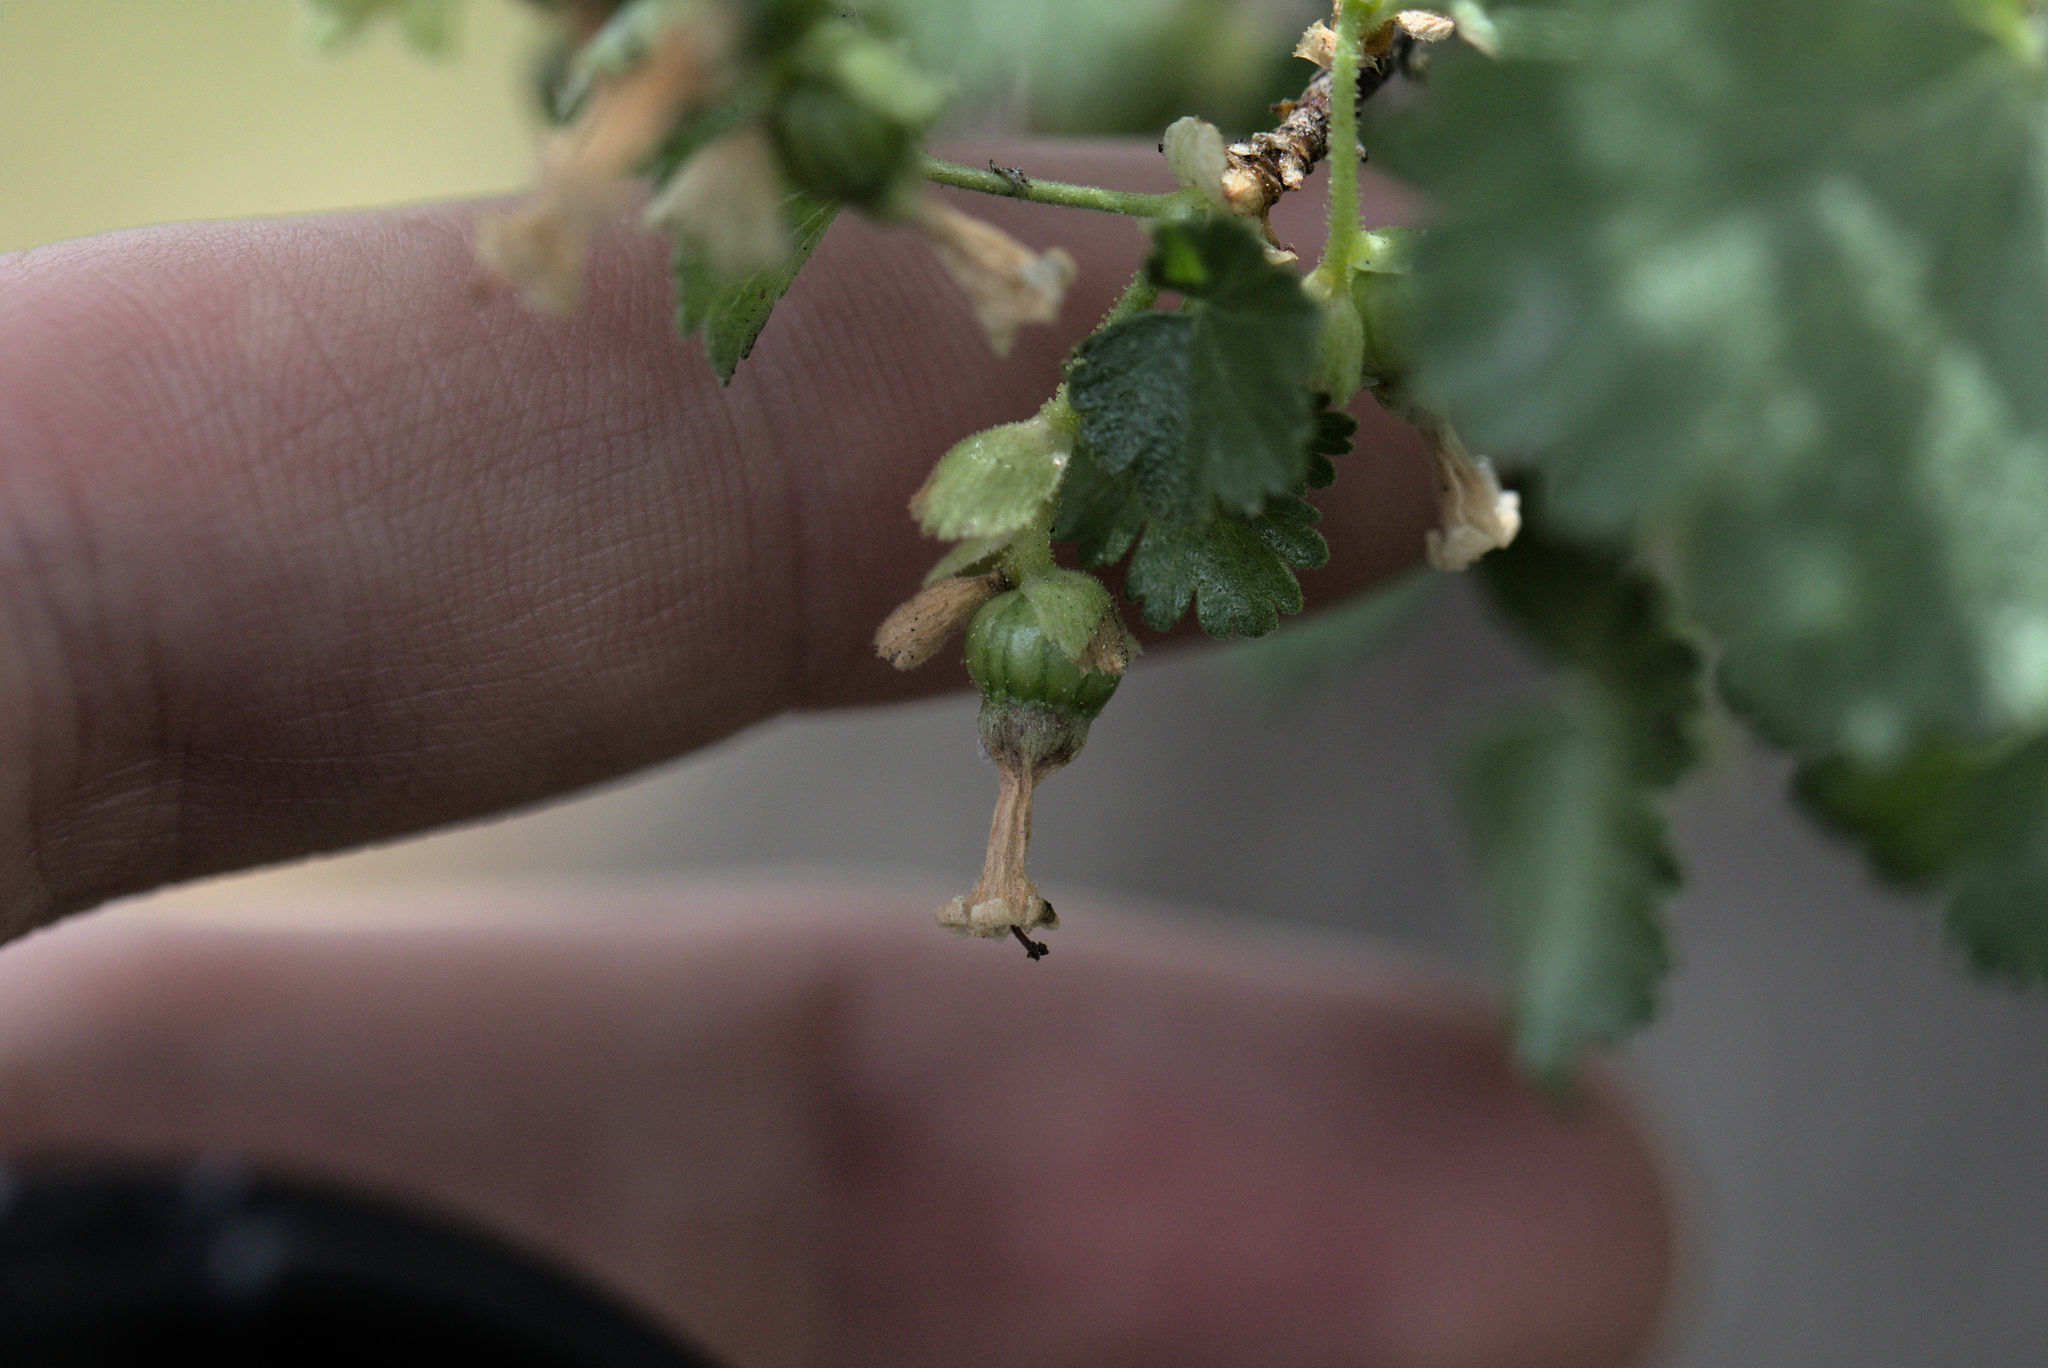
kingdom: Plantae
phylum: Tracheophyta
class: Magnoliopsida
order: Saxifragales
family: Grossulariaceae
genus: Ribes
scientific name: Ribes cereum
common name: Wax currant
